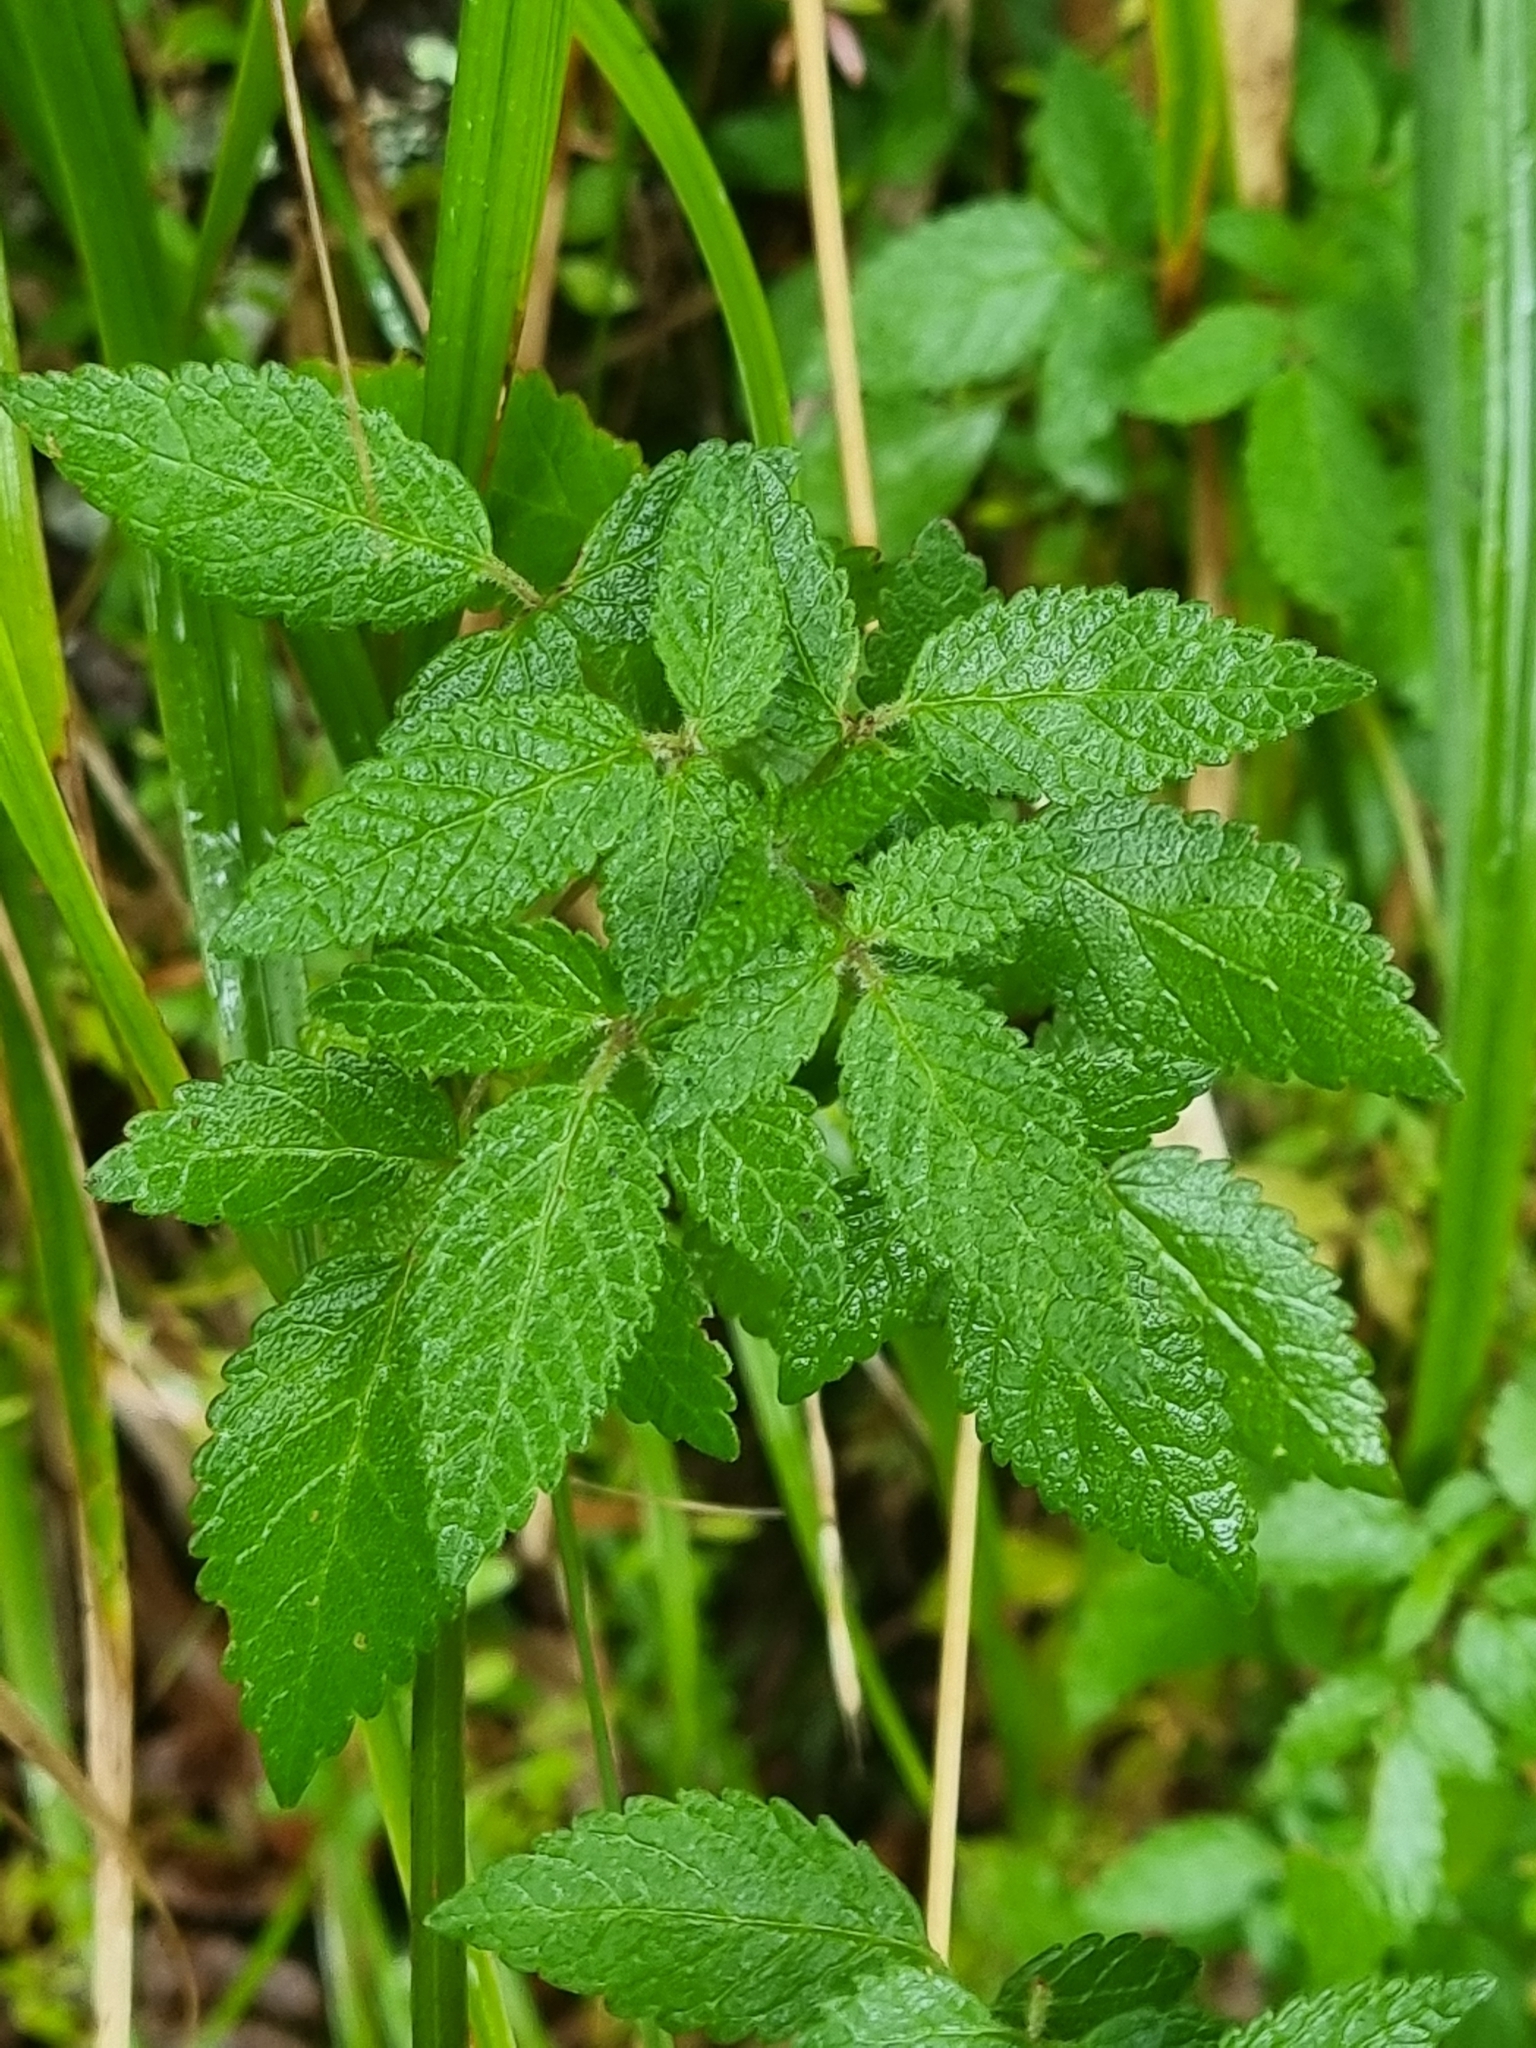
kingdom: Plantae
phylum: Tracheophyta
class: Magnoliopsida
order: Lamiales
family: Lamiaceae
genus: Cedronella
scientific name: Cedronella canariensis
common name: Canary islands balm
